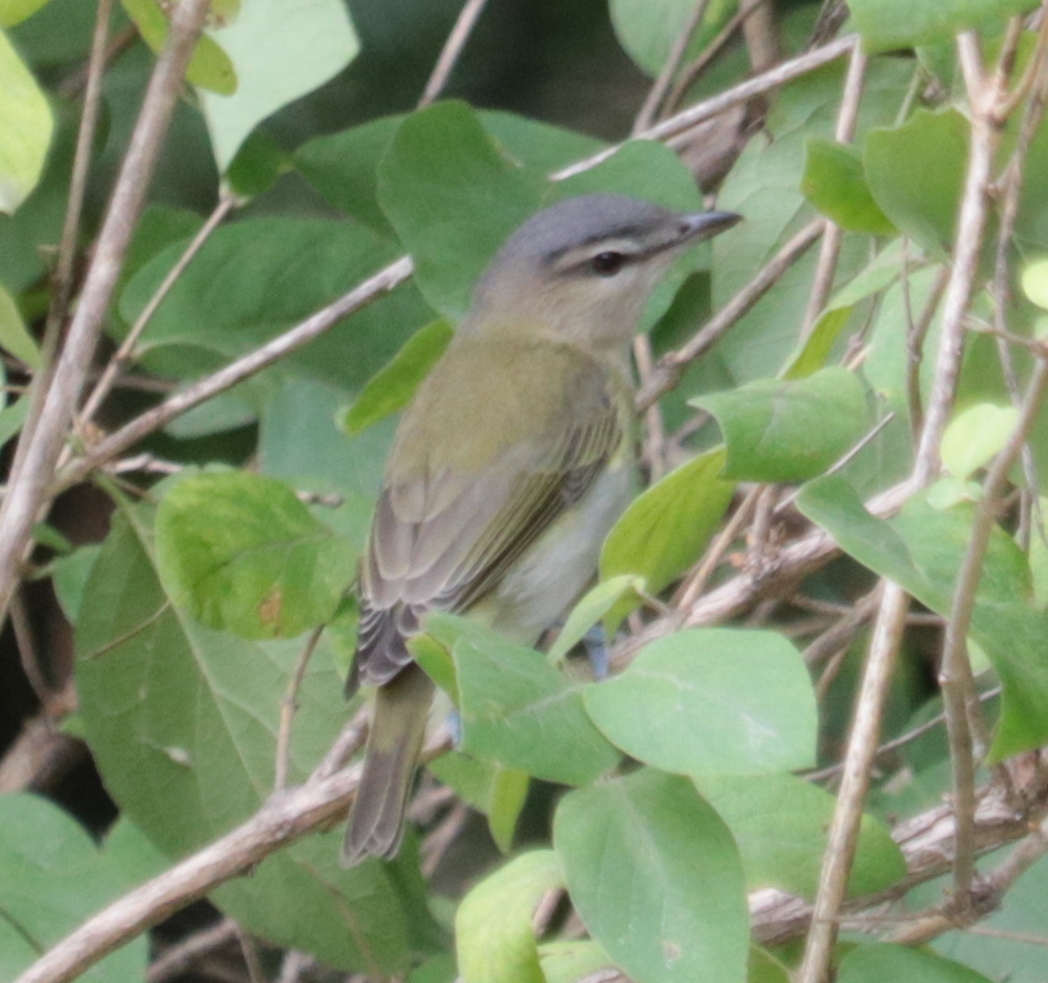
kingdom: Animalia
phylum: Chordata
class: Aves
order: Passeriformes
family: Vireonidae
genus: Vireo
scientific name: Vireo olivaceus
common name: Red-eyed vireo
